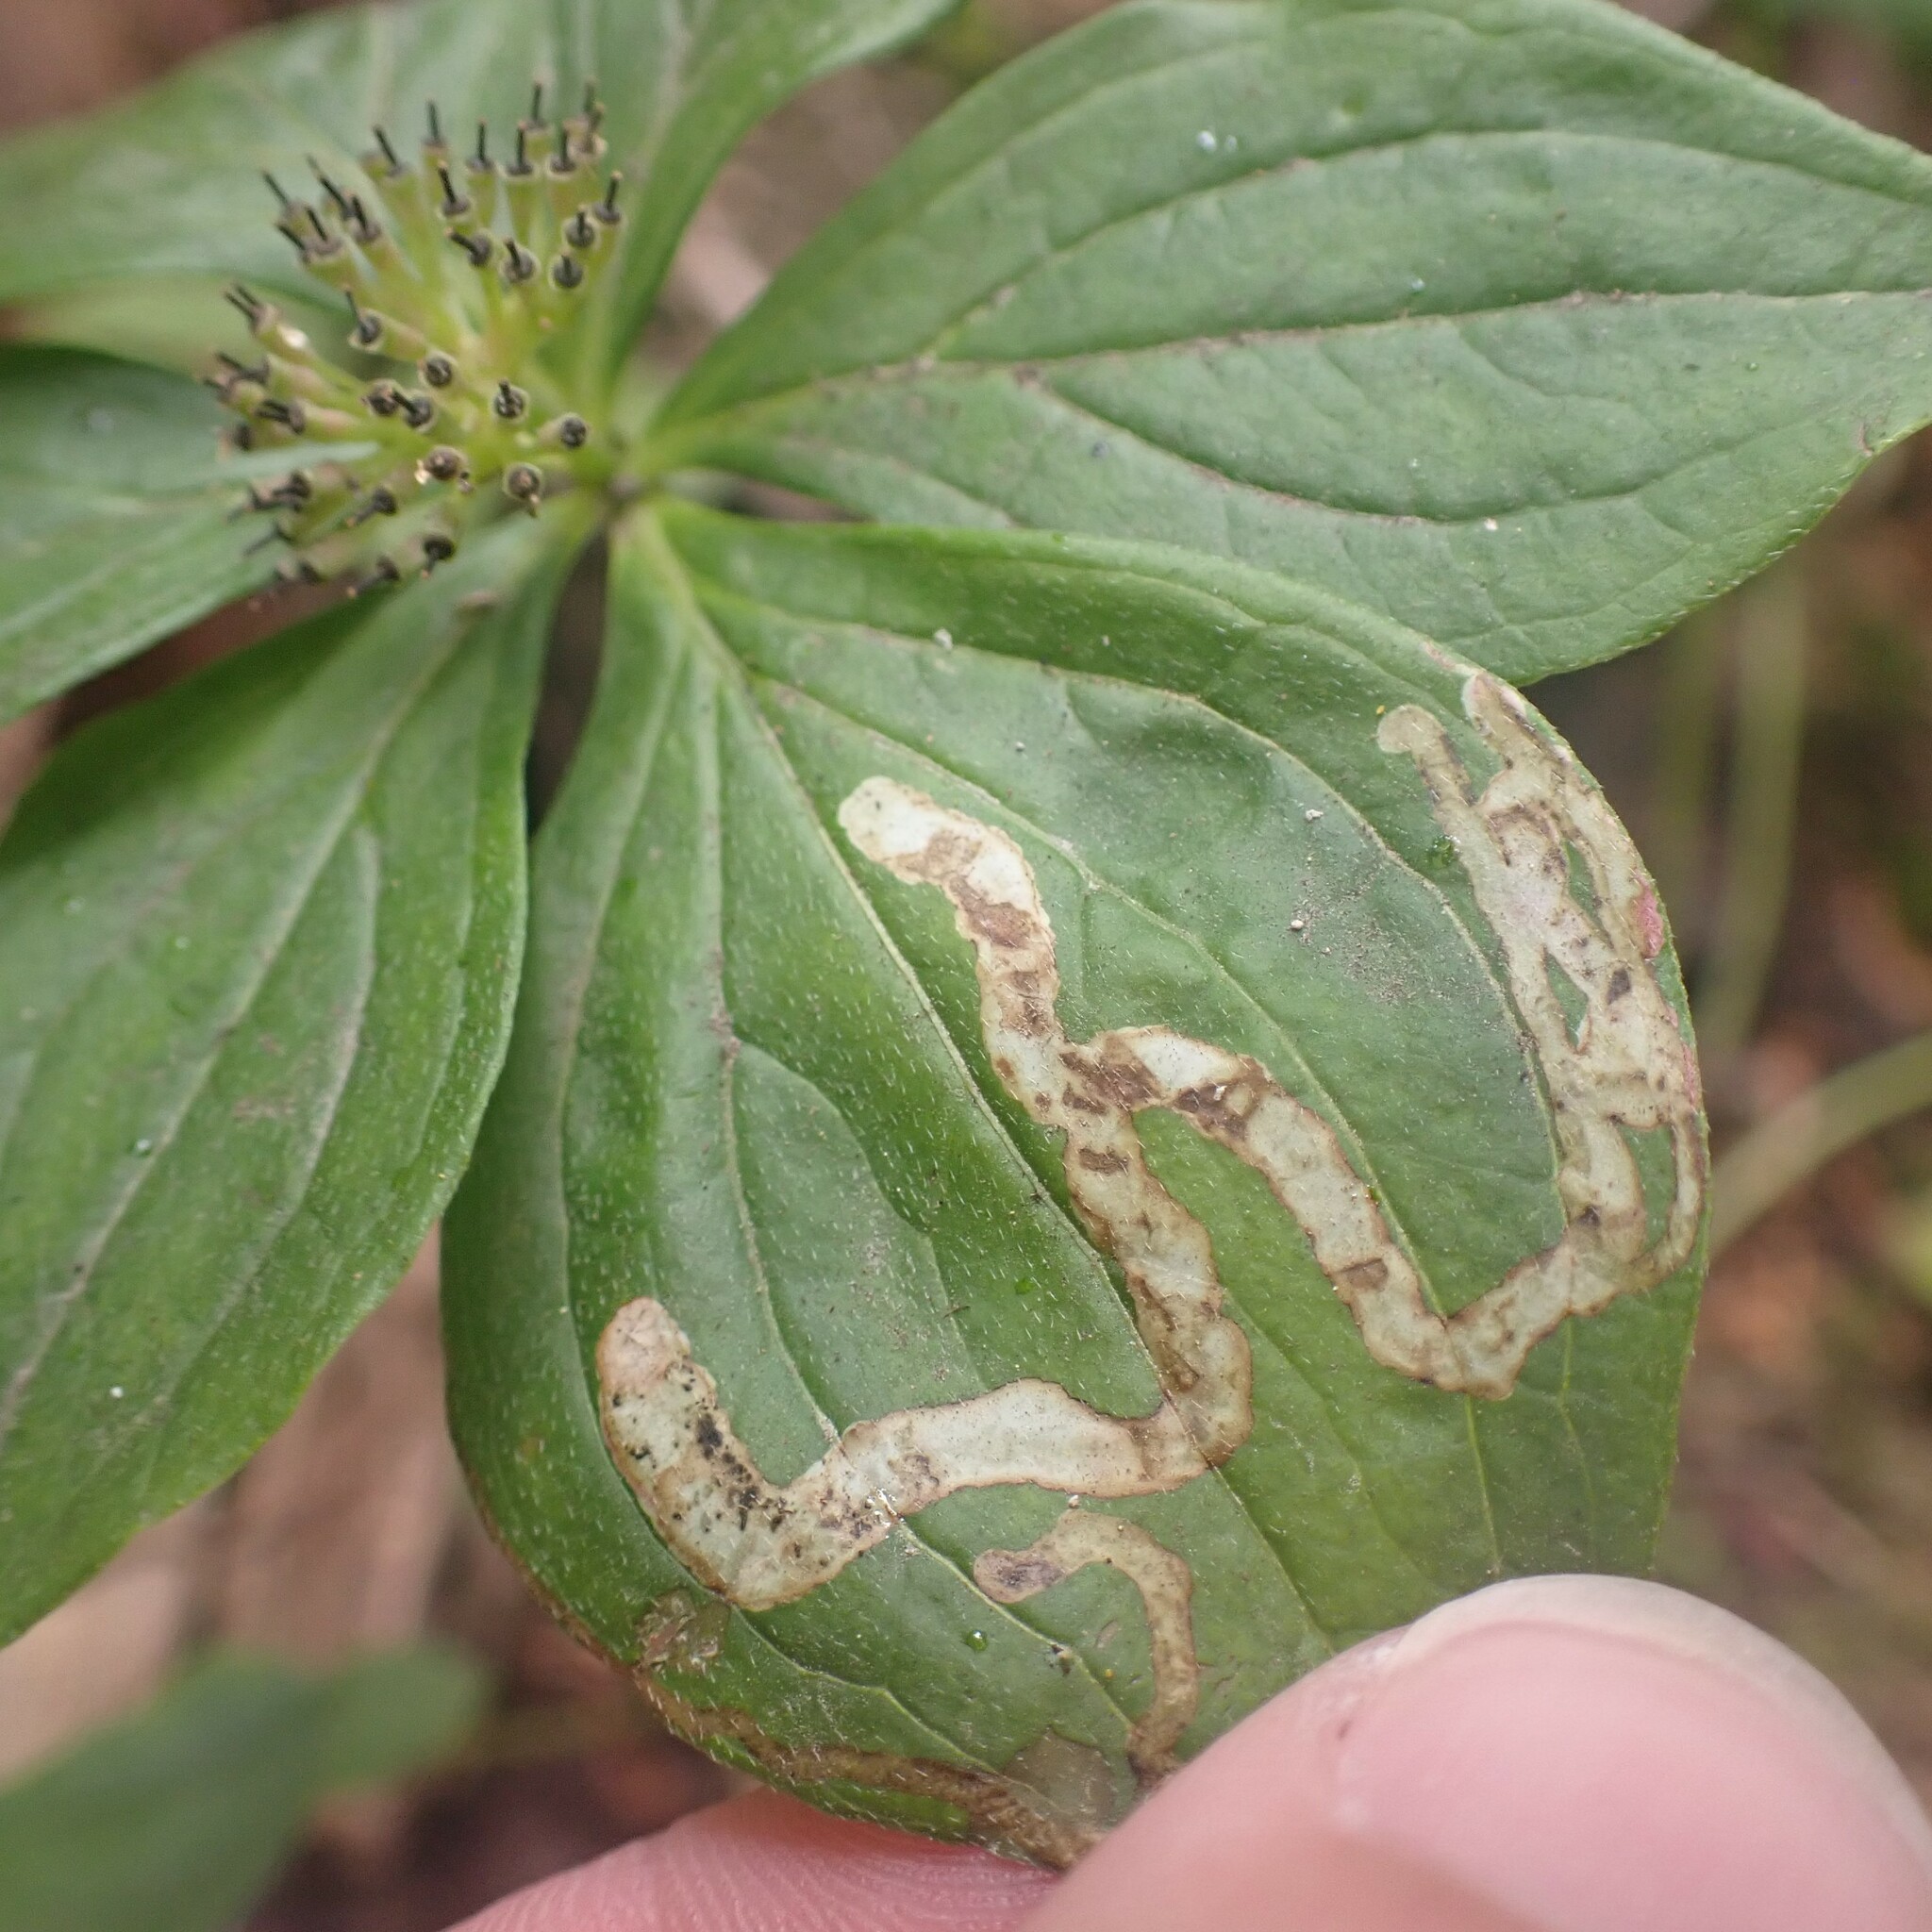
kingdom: Animalia
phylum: Arthropoda
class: Insecta
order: Diptera
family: Agromyzidae
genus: Phytomyza
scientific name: Phytomyza agromyzina
